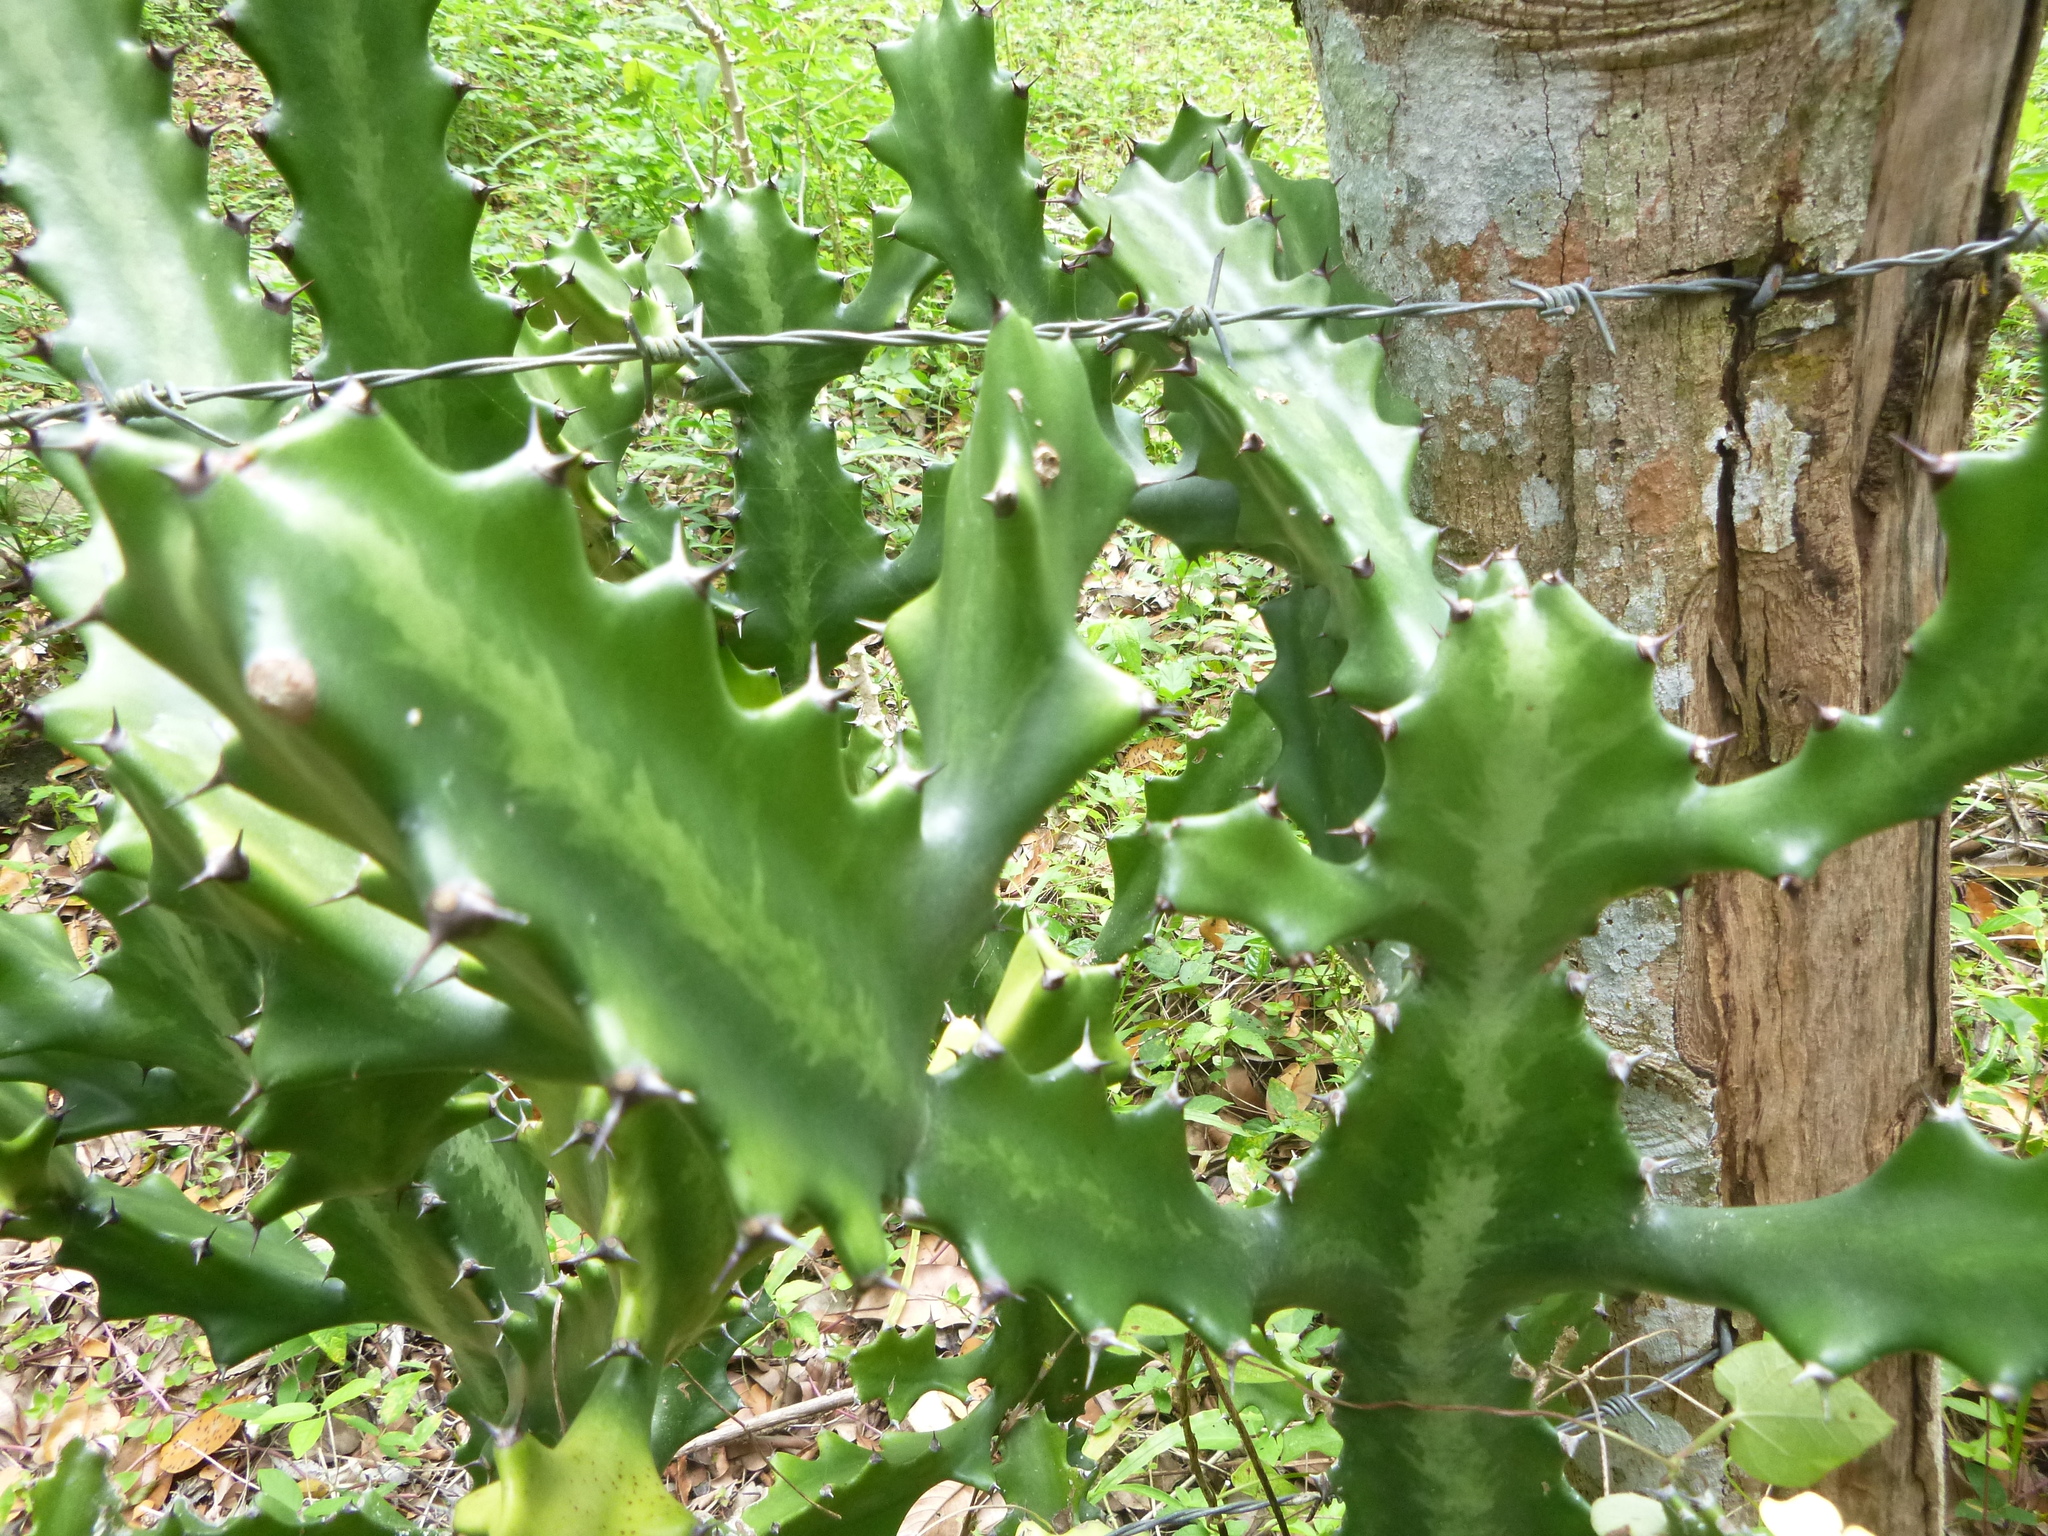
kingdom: Plantae
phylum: Tracheophyta
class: Magnoliopsida
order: Malpighiales
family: Euphorbiaceae
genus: Euphorbia
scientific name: Euphorbia lactea
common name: Mottled spurge
